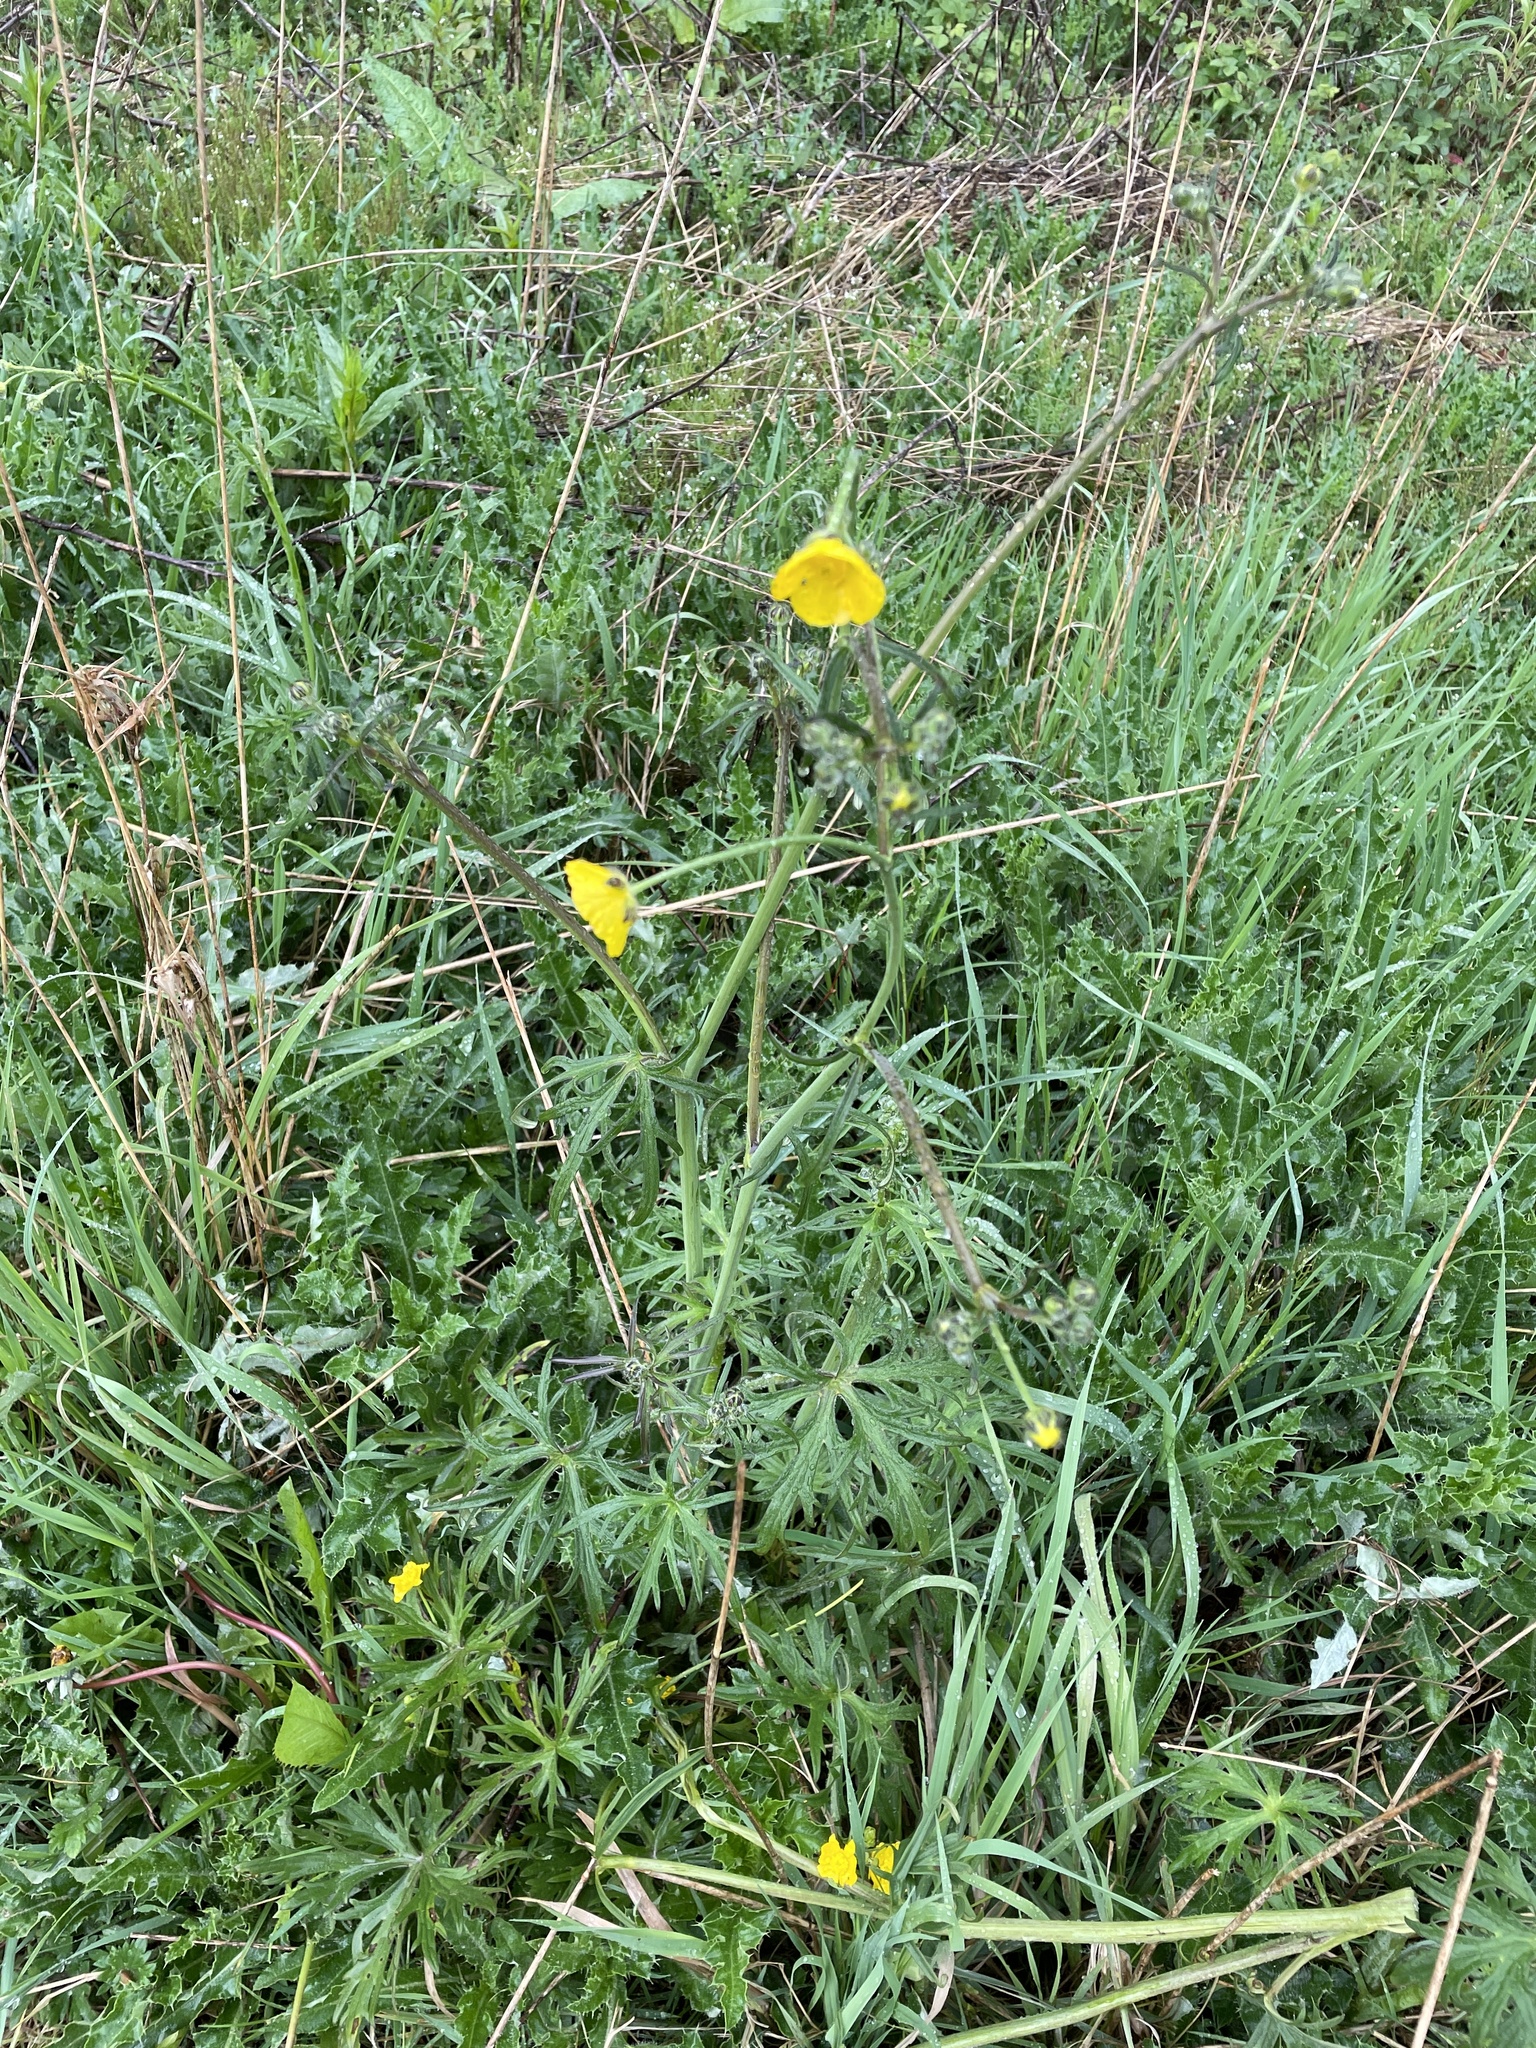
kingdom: Plantae
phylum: Tracheophyta
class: Magnoliopsida
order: Ranunculales
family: Ranunculaceae
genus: Ranunculus
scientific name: Ranunculus acris
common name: Meadow buttercup
